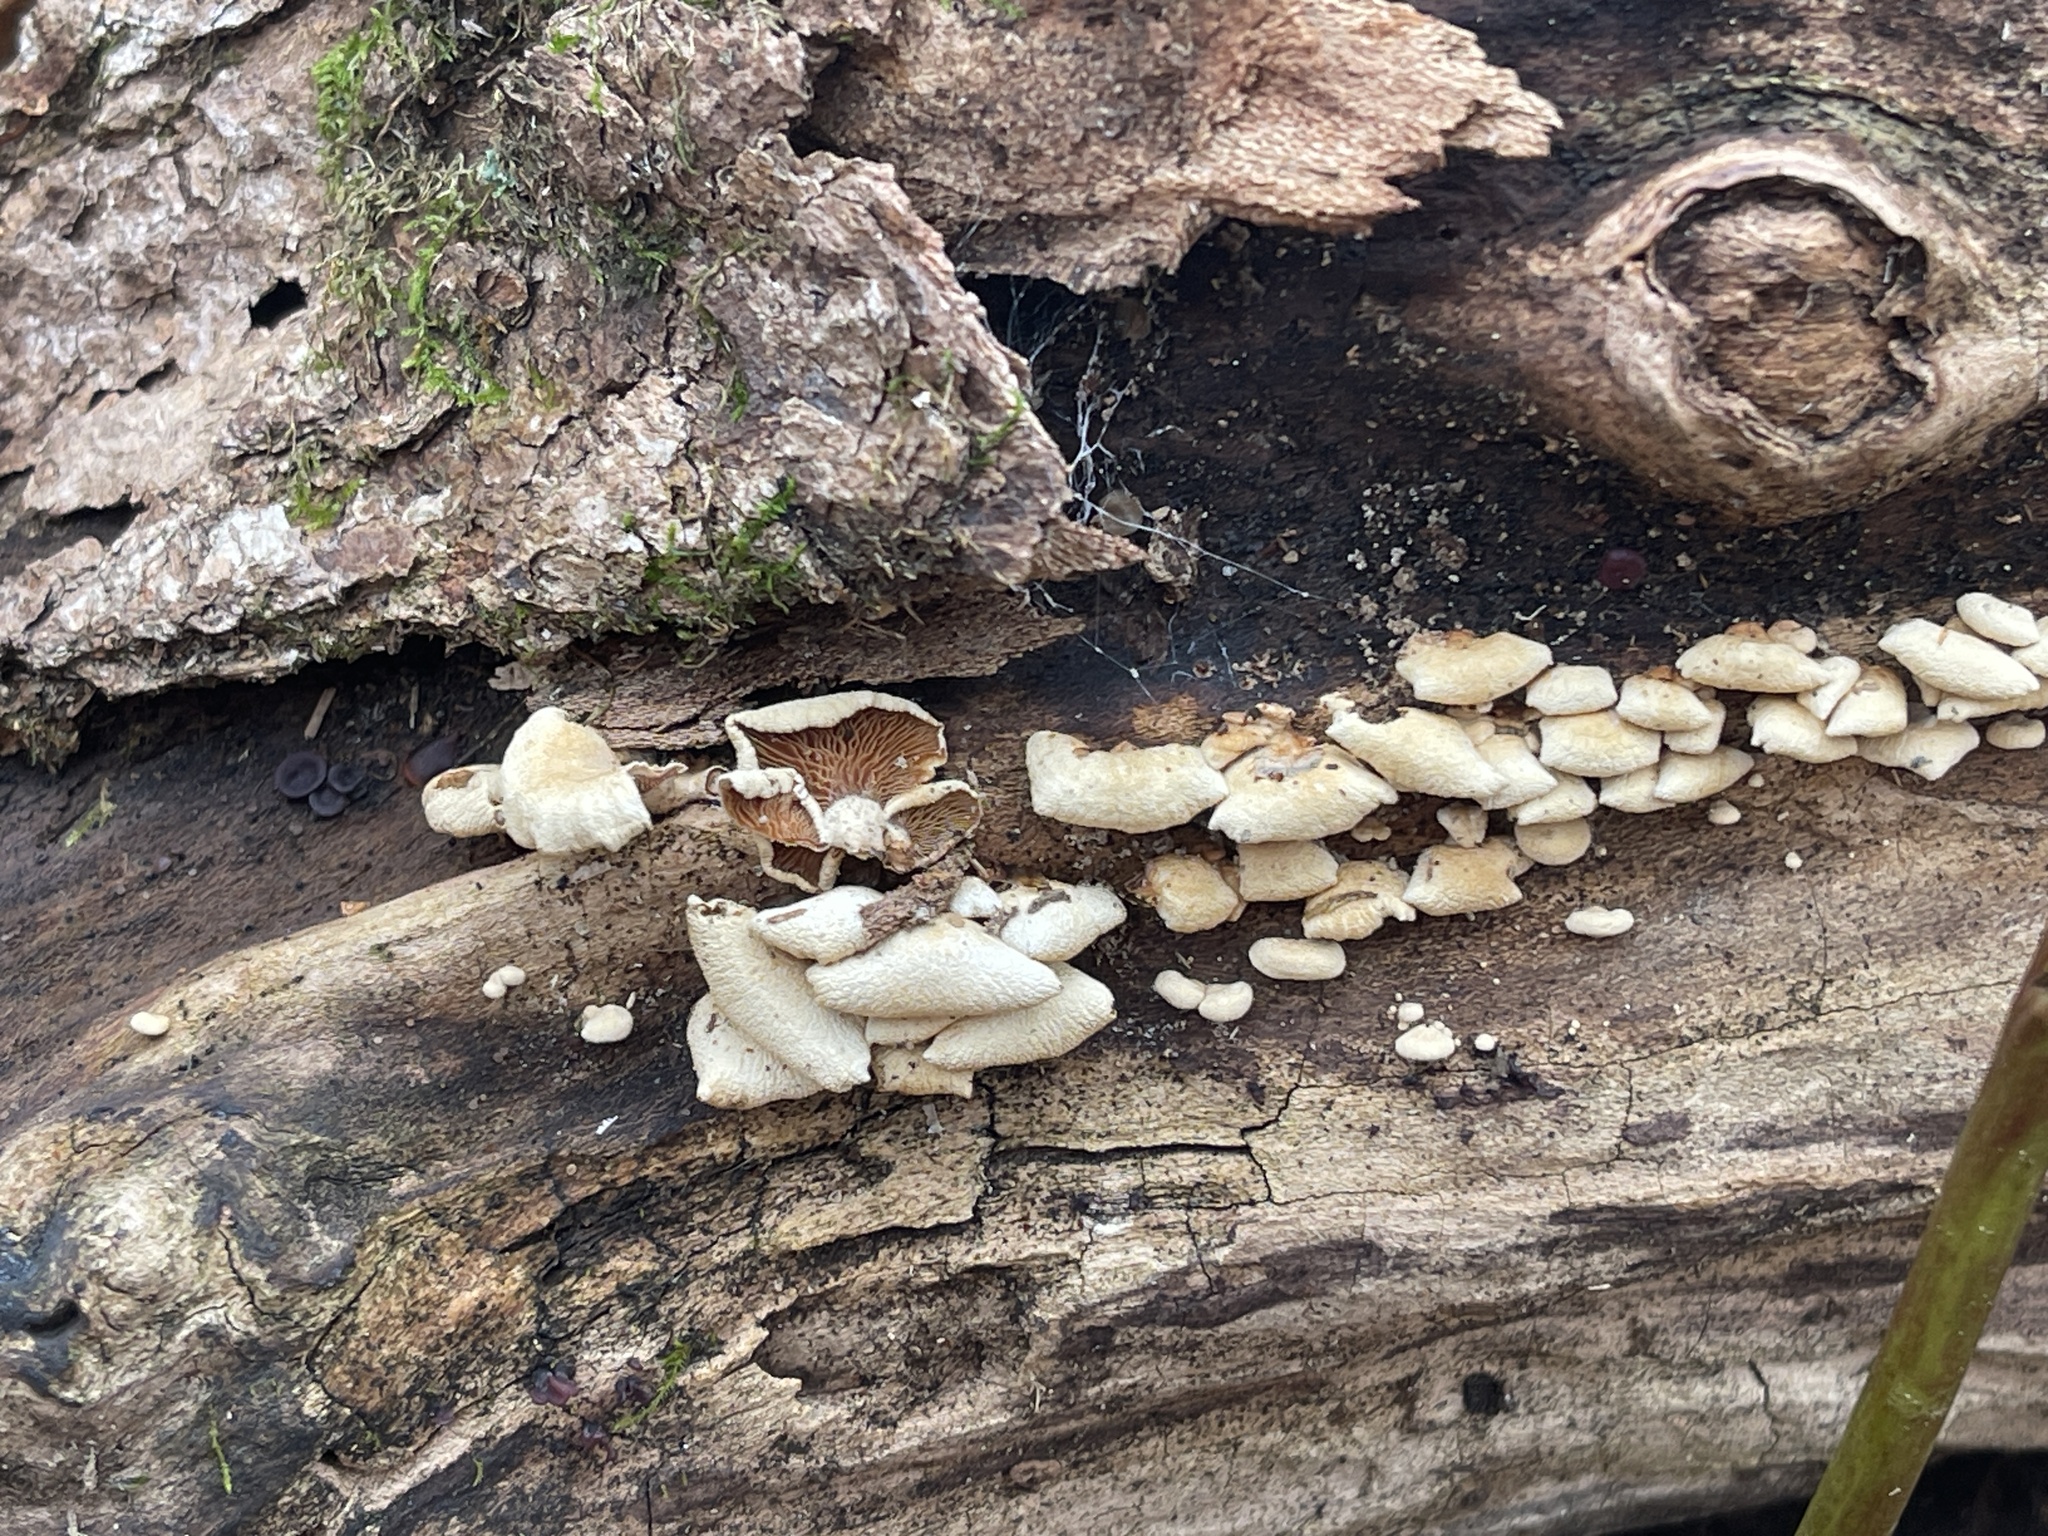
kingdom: Fungi
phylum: Basidiomycota
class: Agaricomycetes
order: Agaricales
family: Mycenaceae
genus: Panellus
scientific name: Panellus stipticus
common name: Bitter oysterling
